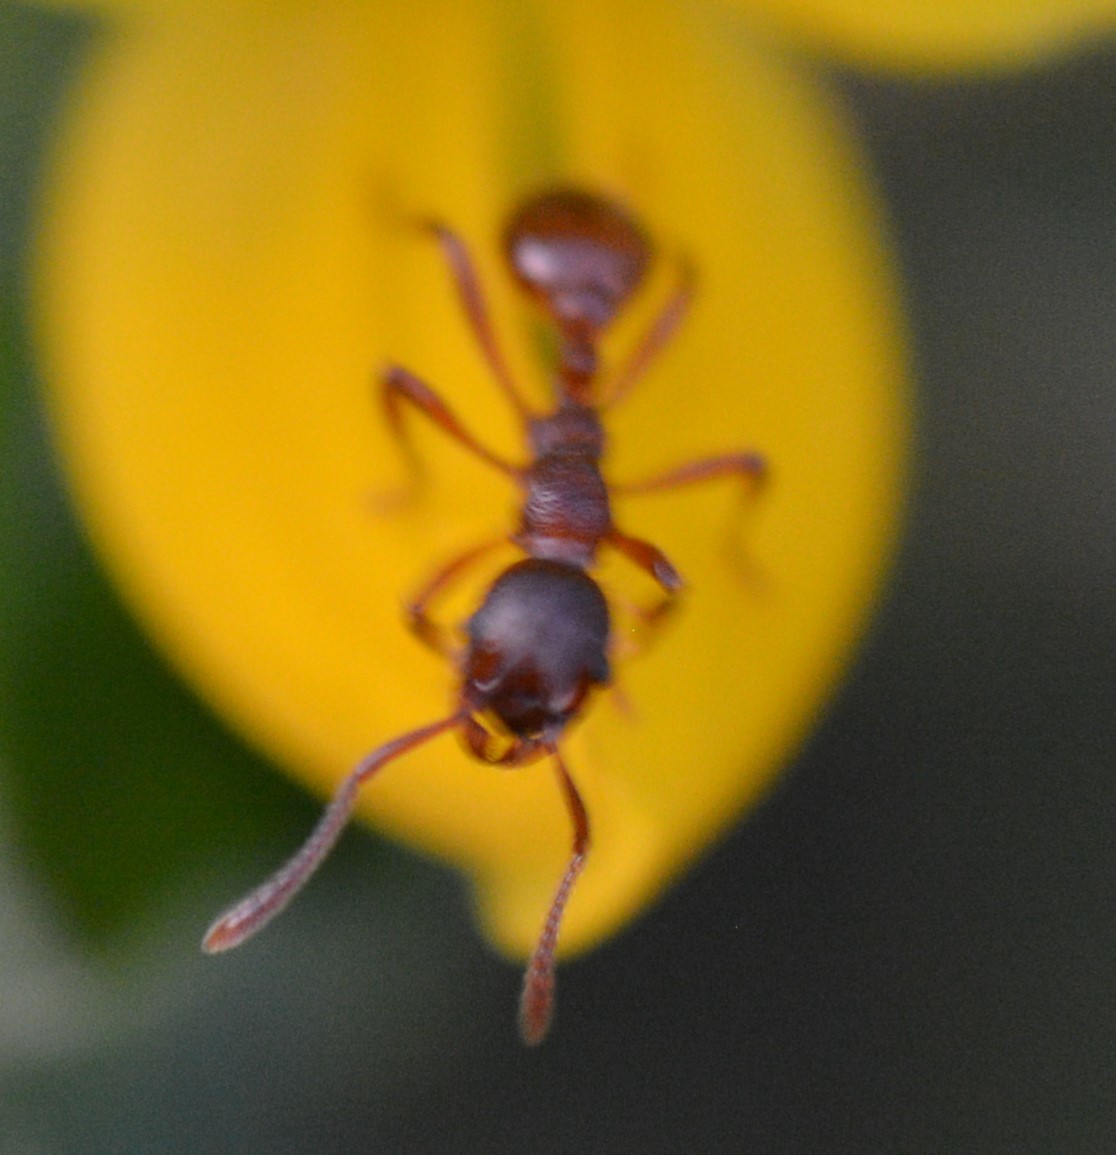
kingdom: Animalia
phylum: Arthropoda
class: Insecta
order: Hymenoptera
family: Formicidae
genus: Myrmica
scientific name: Myrmica rubra
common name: European fire ant
